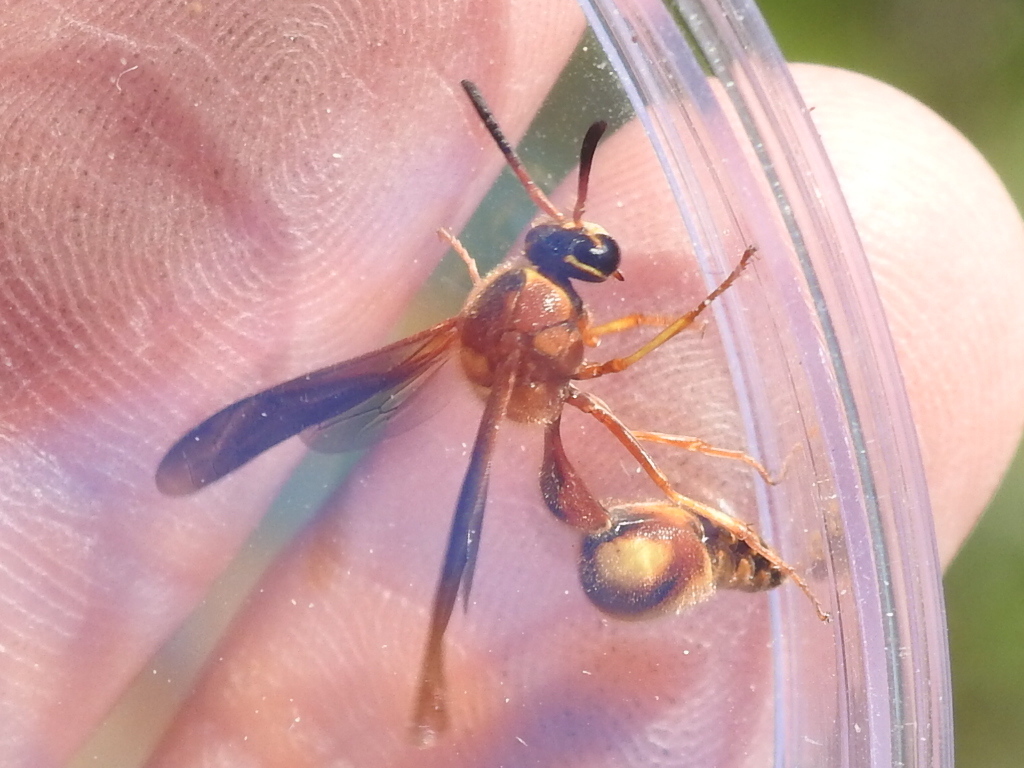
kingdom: Animalia
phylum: Arthropoda
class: Insecta
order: Hymenoptera
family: Vespidae
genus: Eumenes
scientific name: Eumenes bollii
